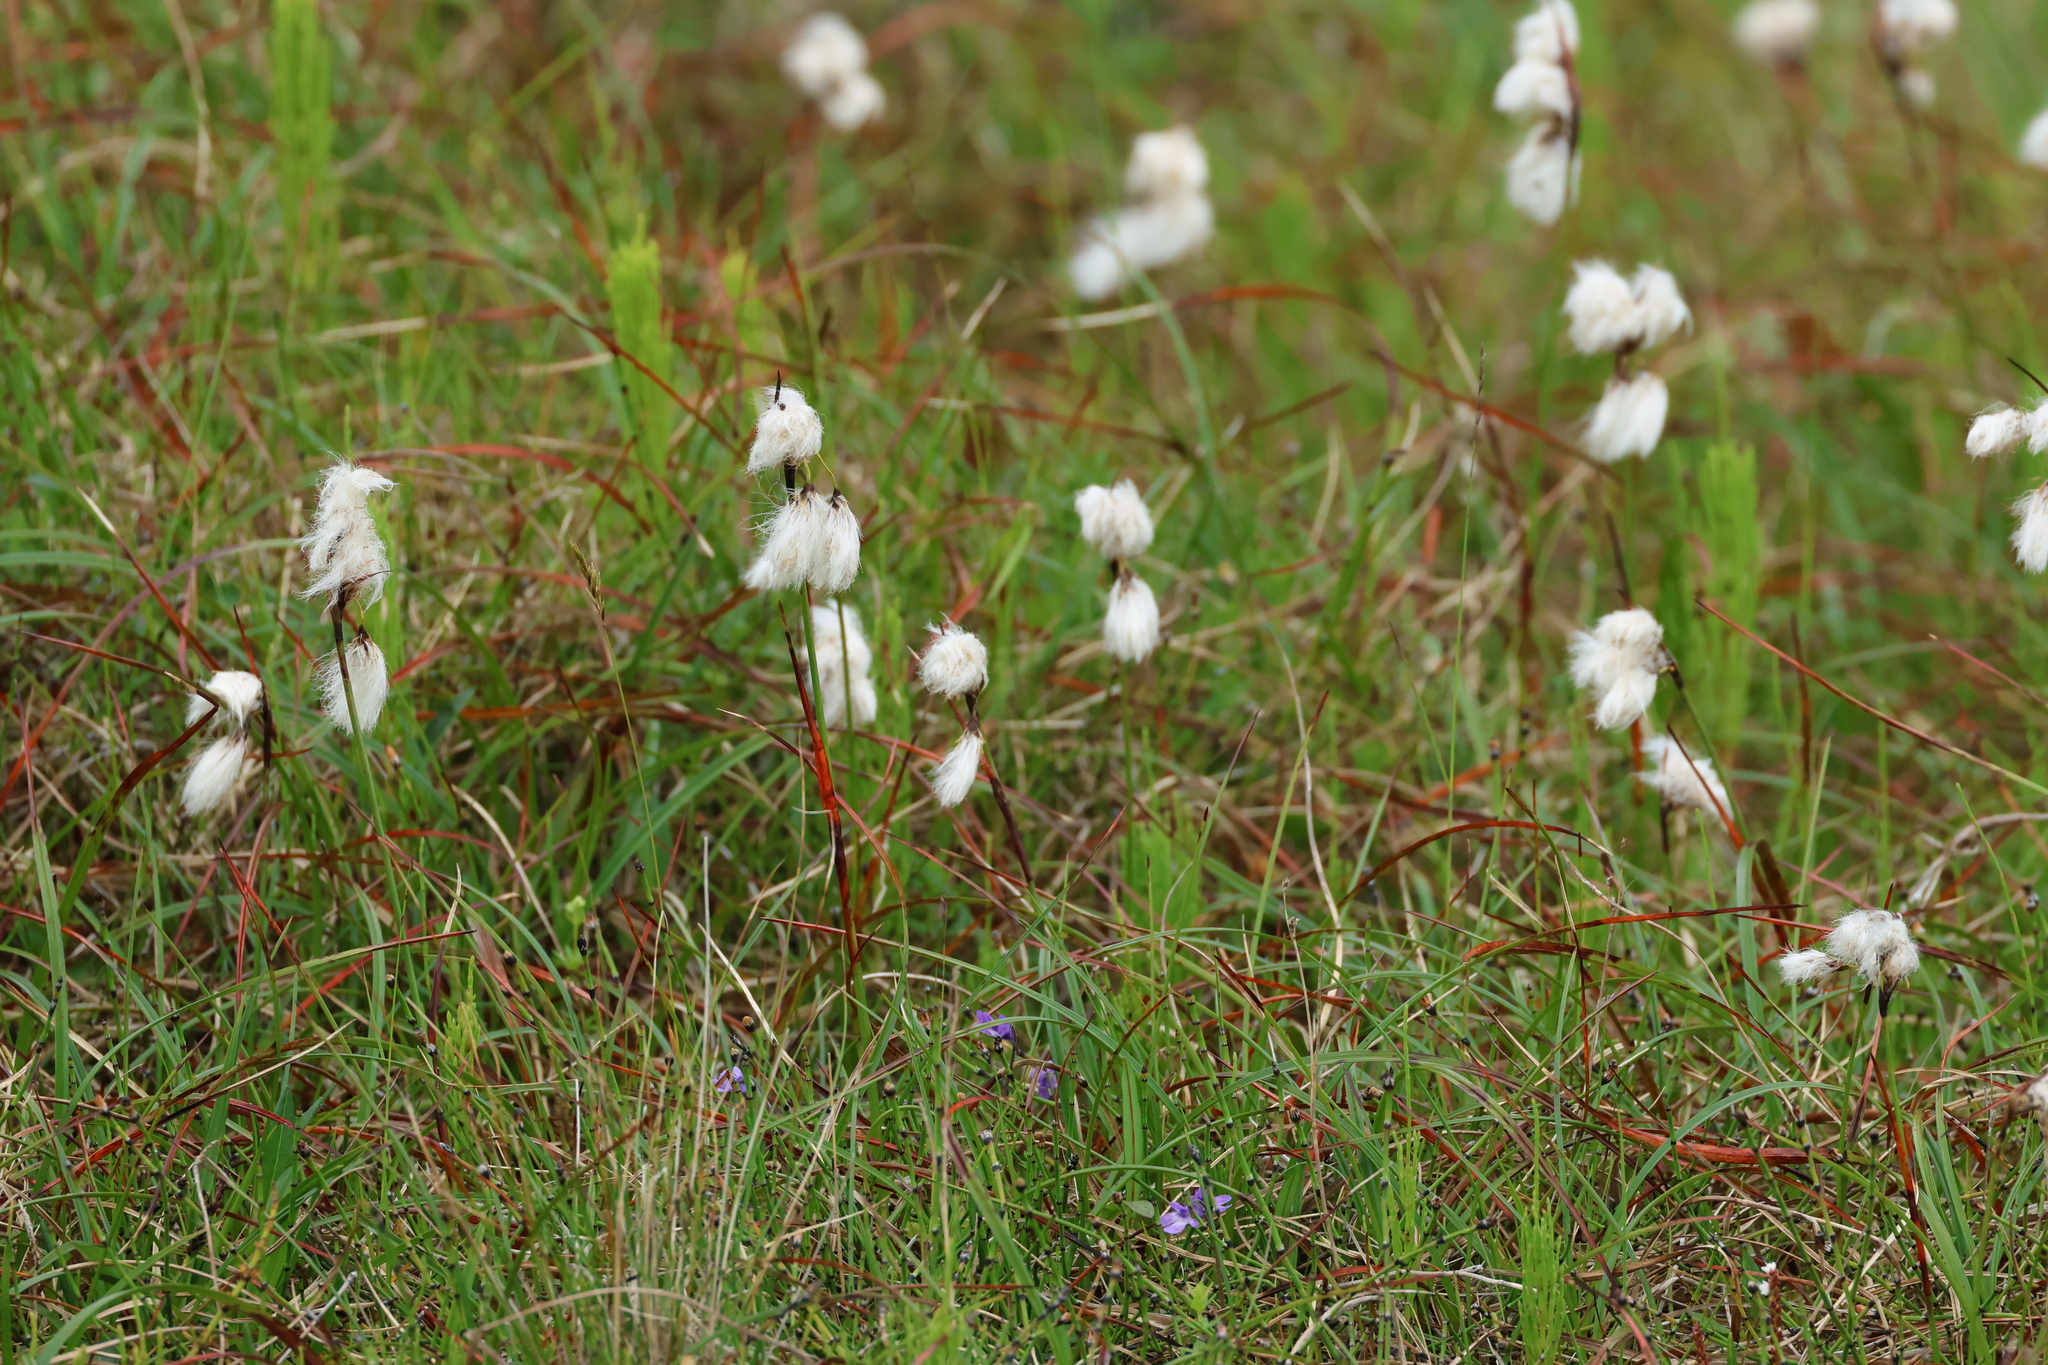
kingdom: Plantae
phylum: Tracheophyta
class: Liliopsida
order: Poales
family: Cyperaceae
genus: Eriophorum
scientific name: Eriophorum angustifolium
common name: Common cottongrass
